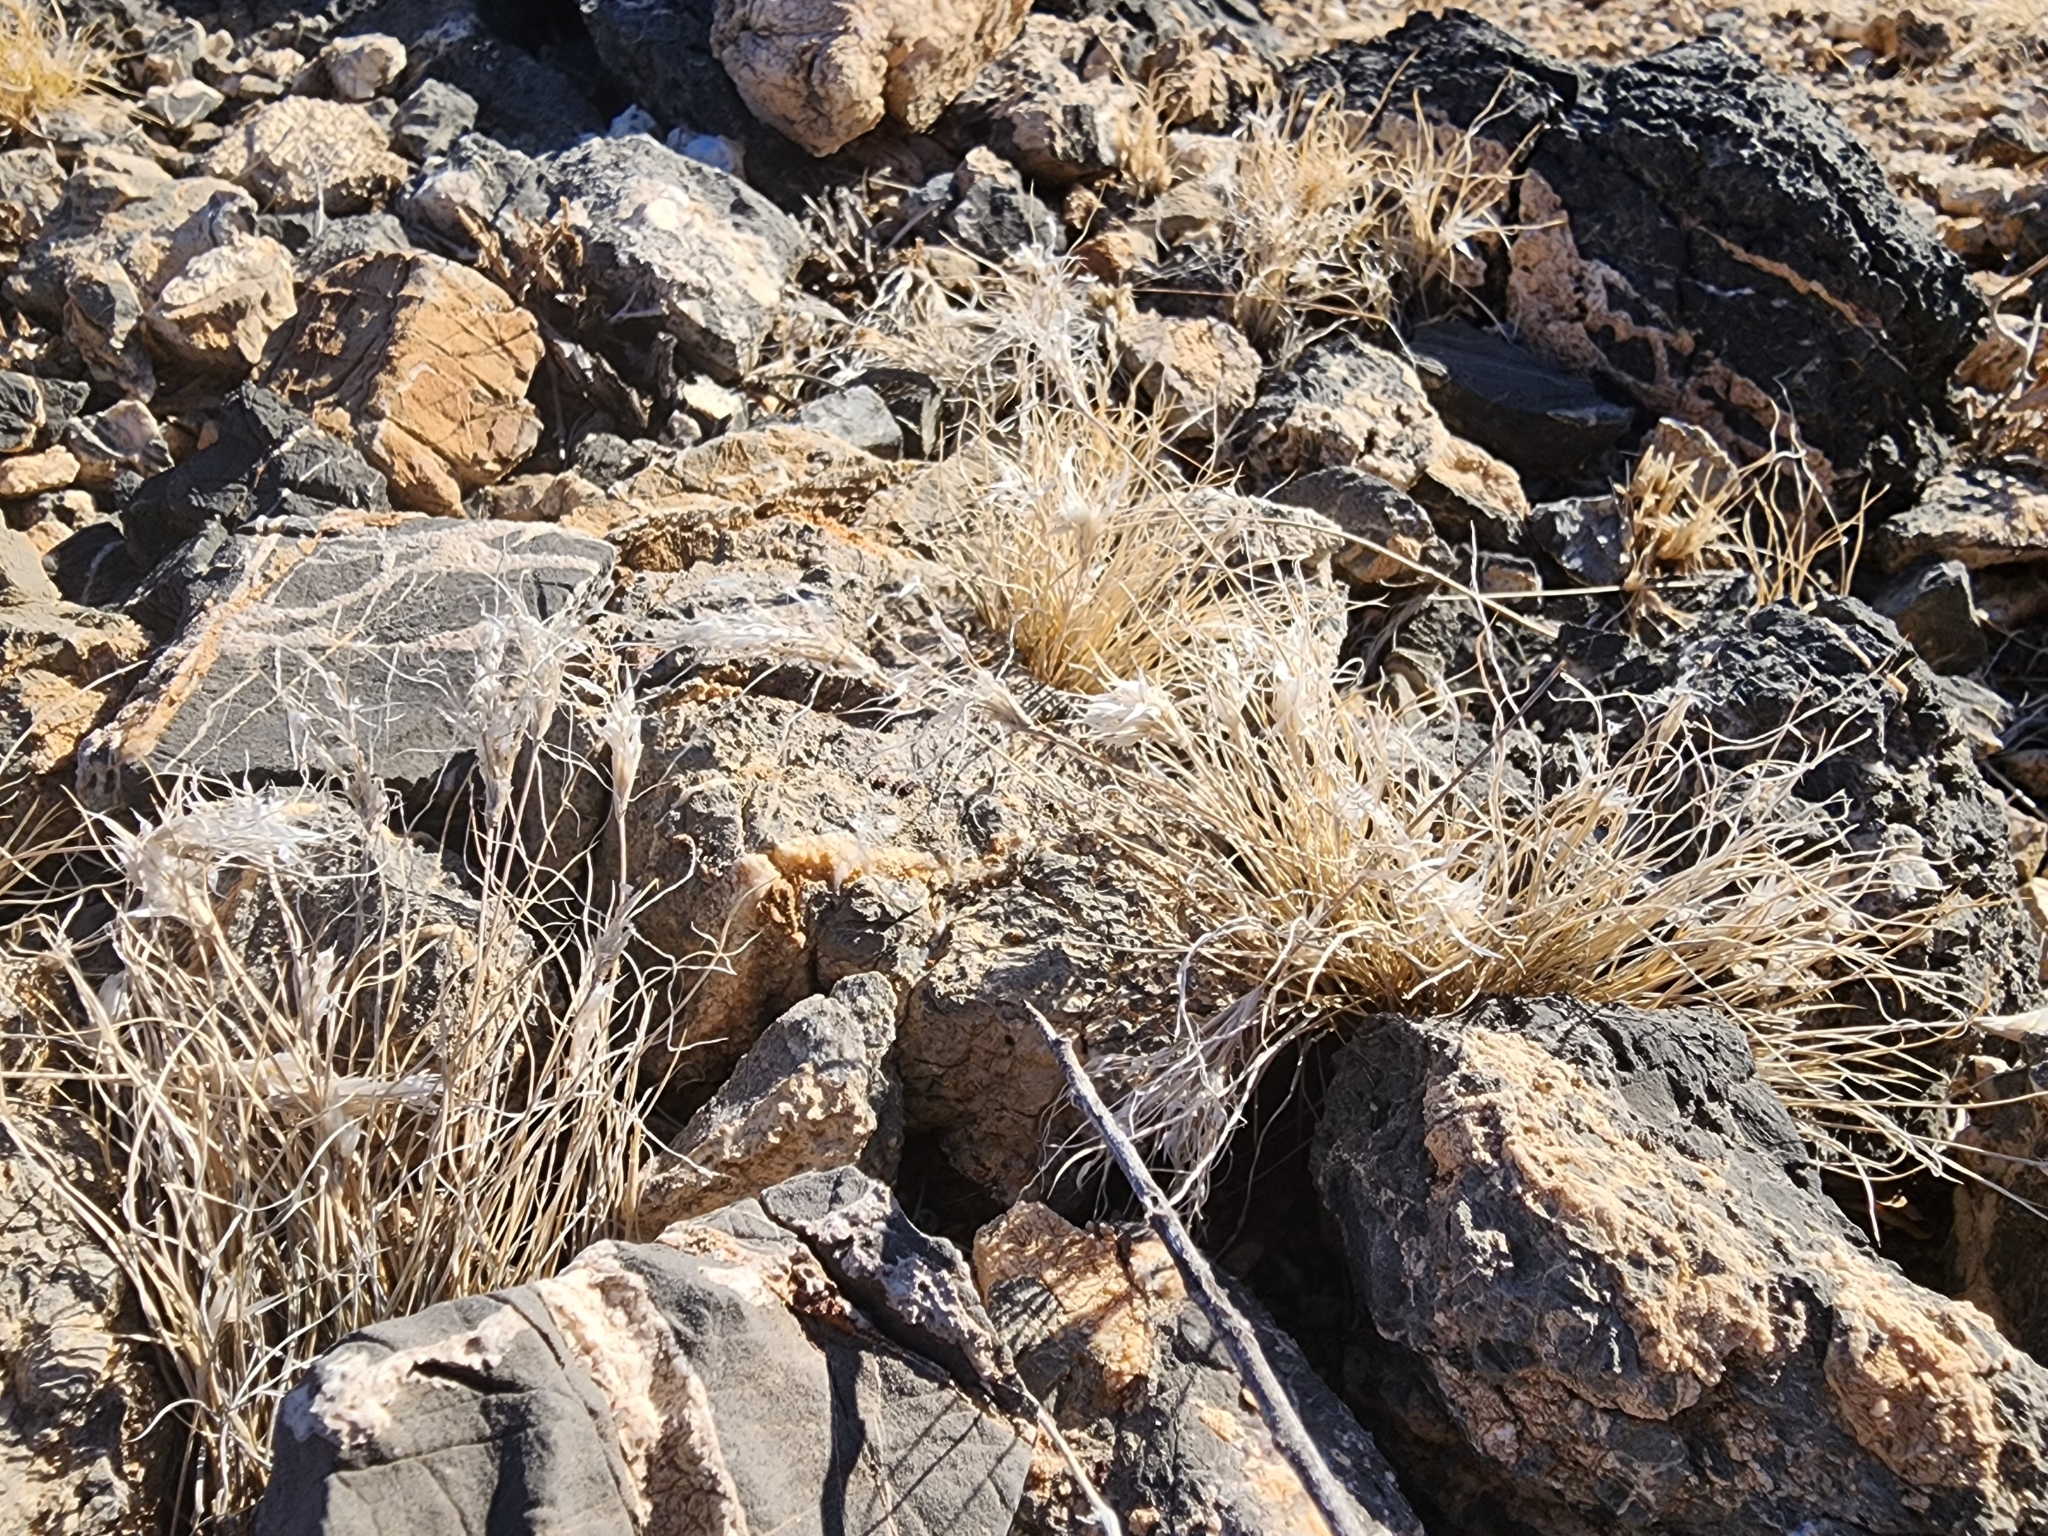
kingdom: Plantae
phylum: Tracheophyta
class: Liliopsida
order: Poales
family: Poaceae
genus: Cenchrus
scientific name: Cenchrus ciliaris
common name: Buffelgrass
